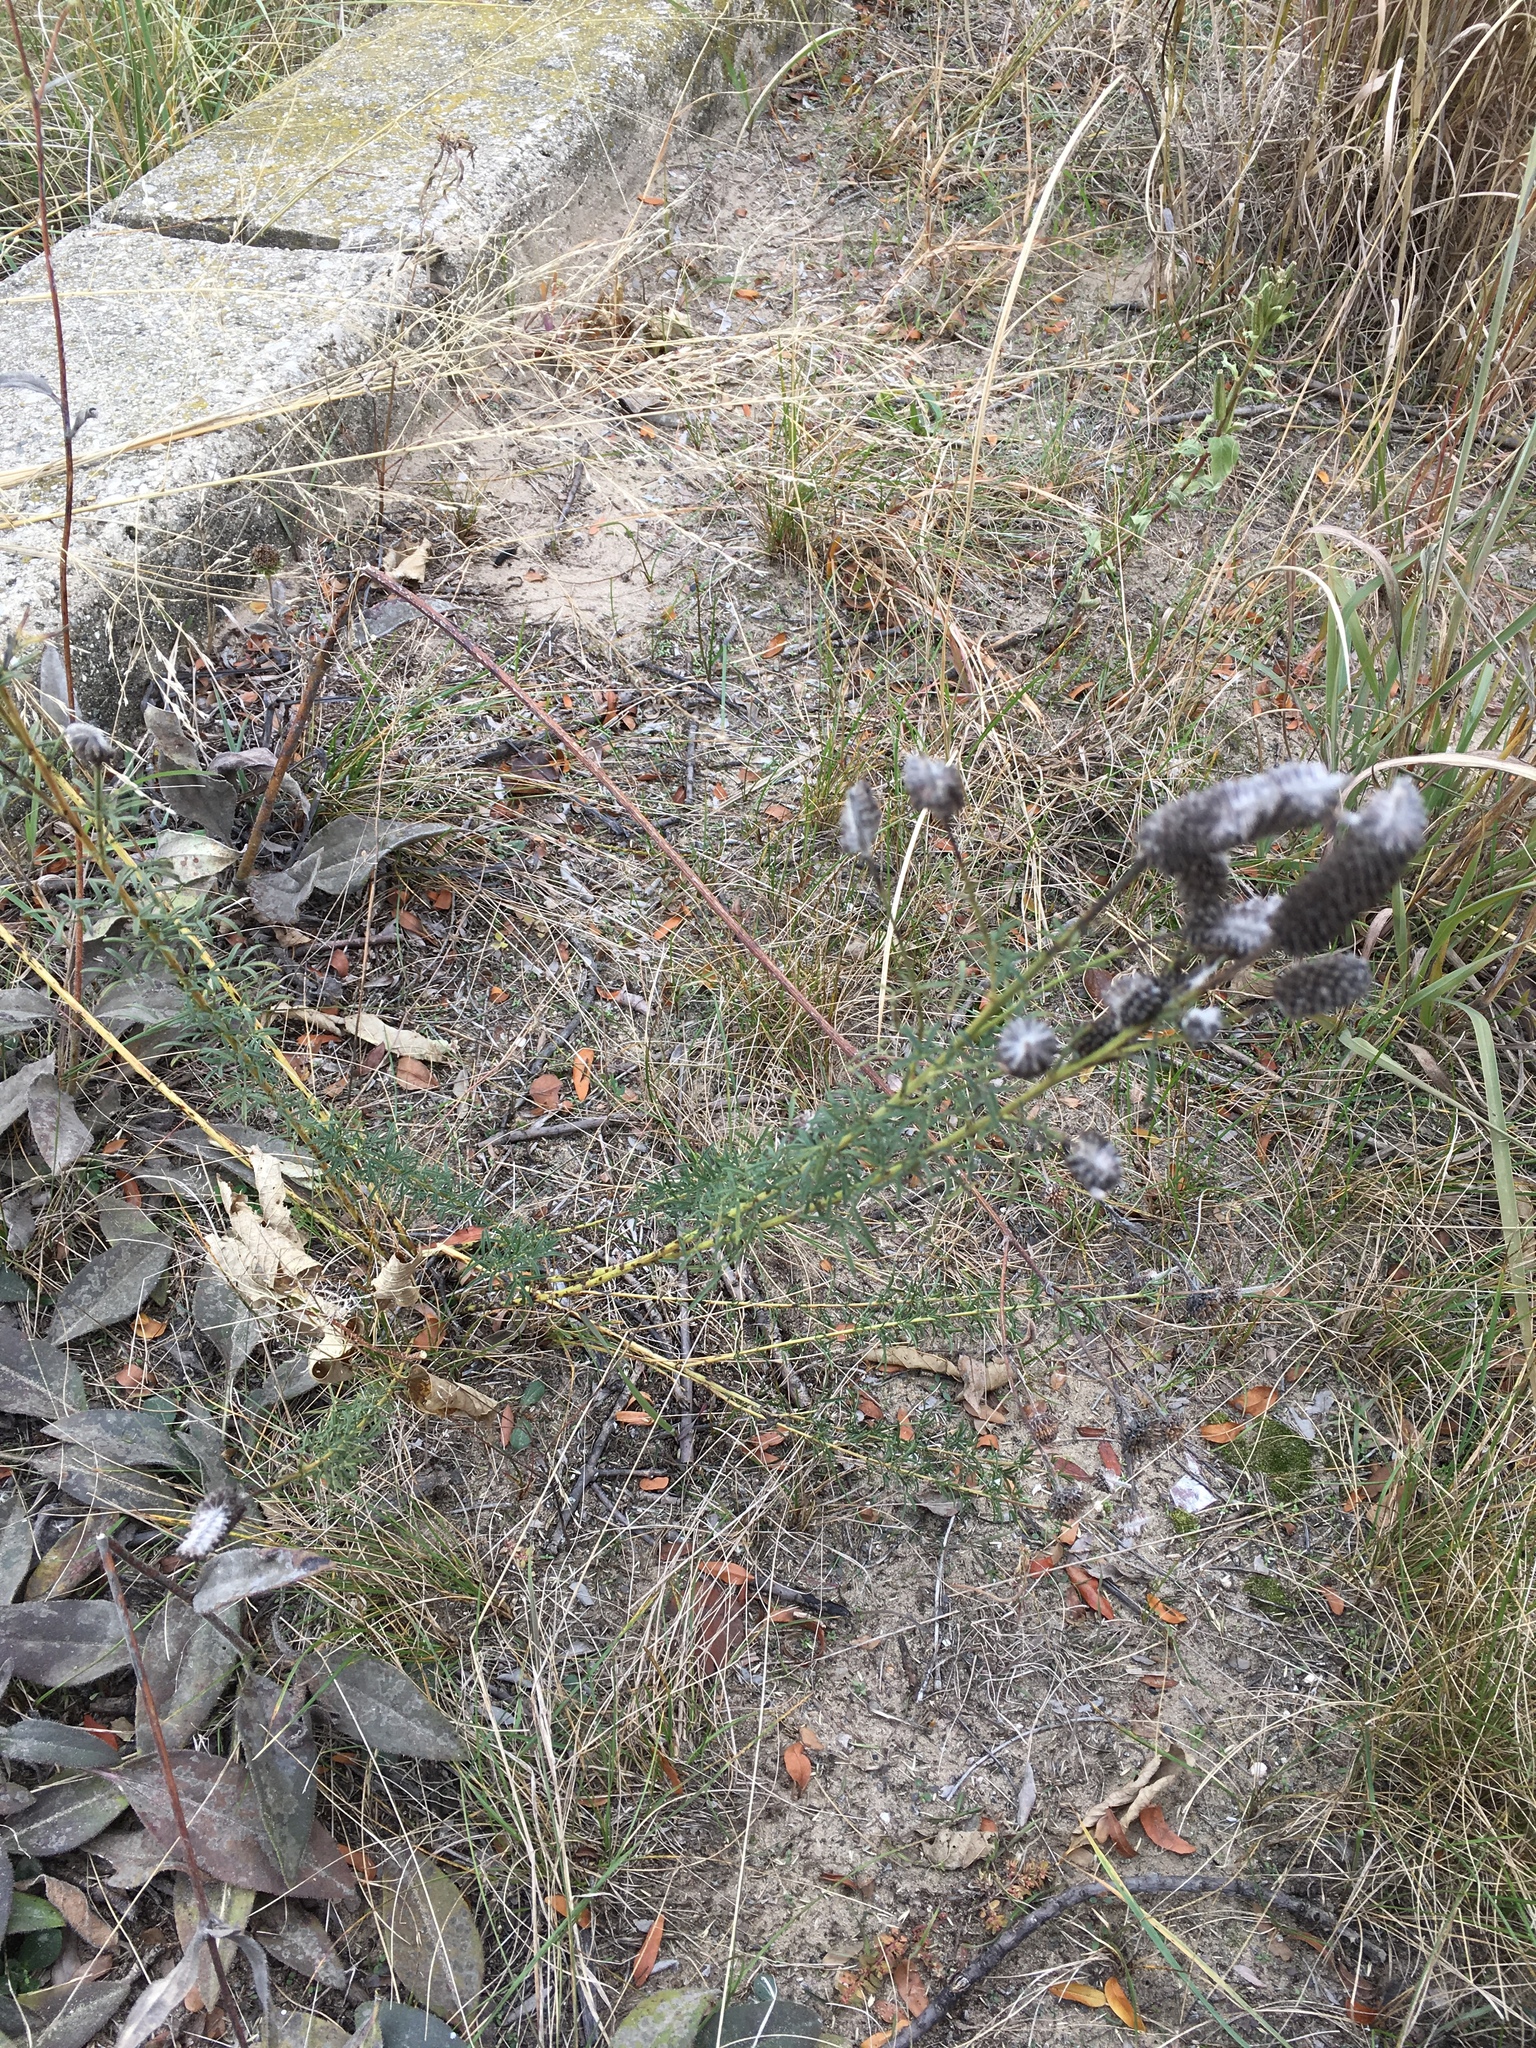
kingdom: Plantae
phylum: Tracheophyta
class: Magnoliopsida
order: Fabales
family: Fabaceae
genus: Dalea
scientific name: Dalea purpurea
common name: Purple prairie-clover
